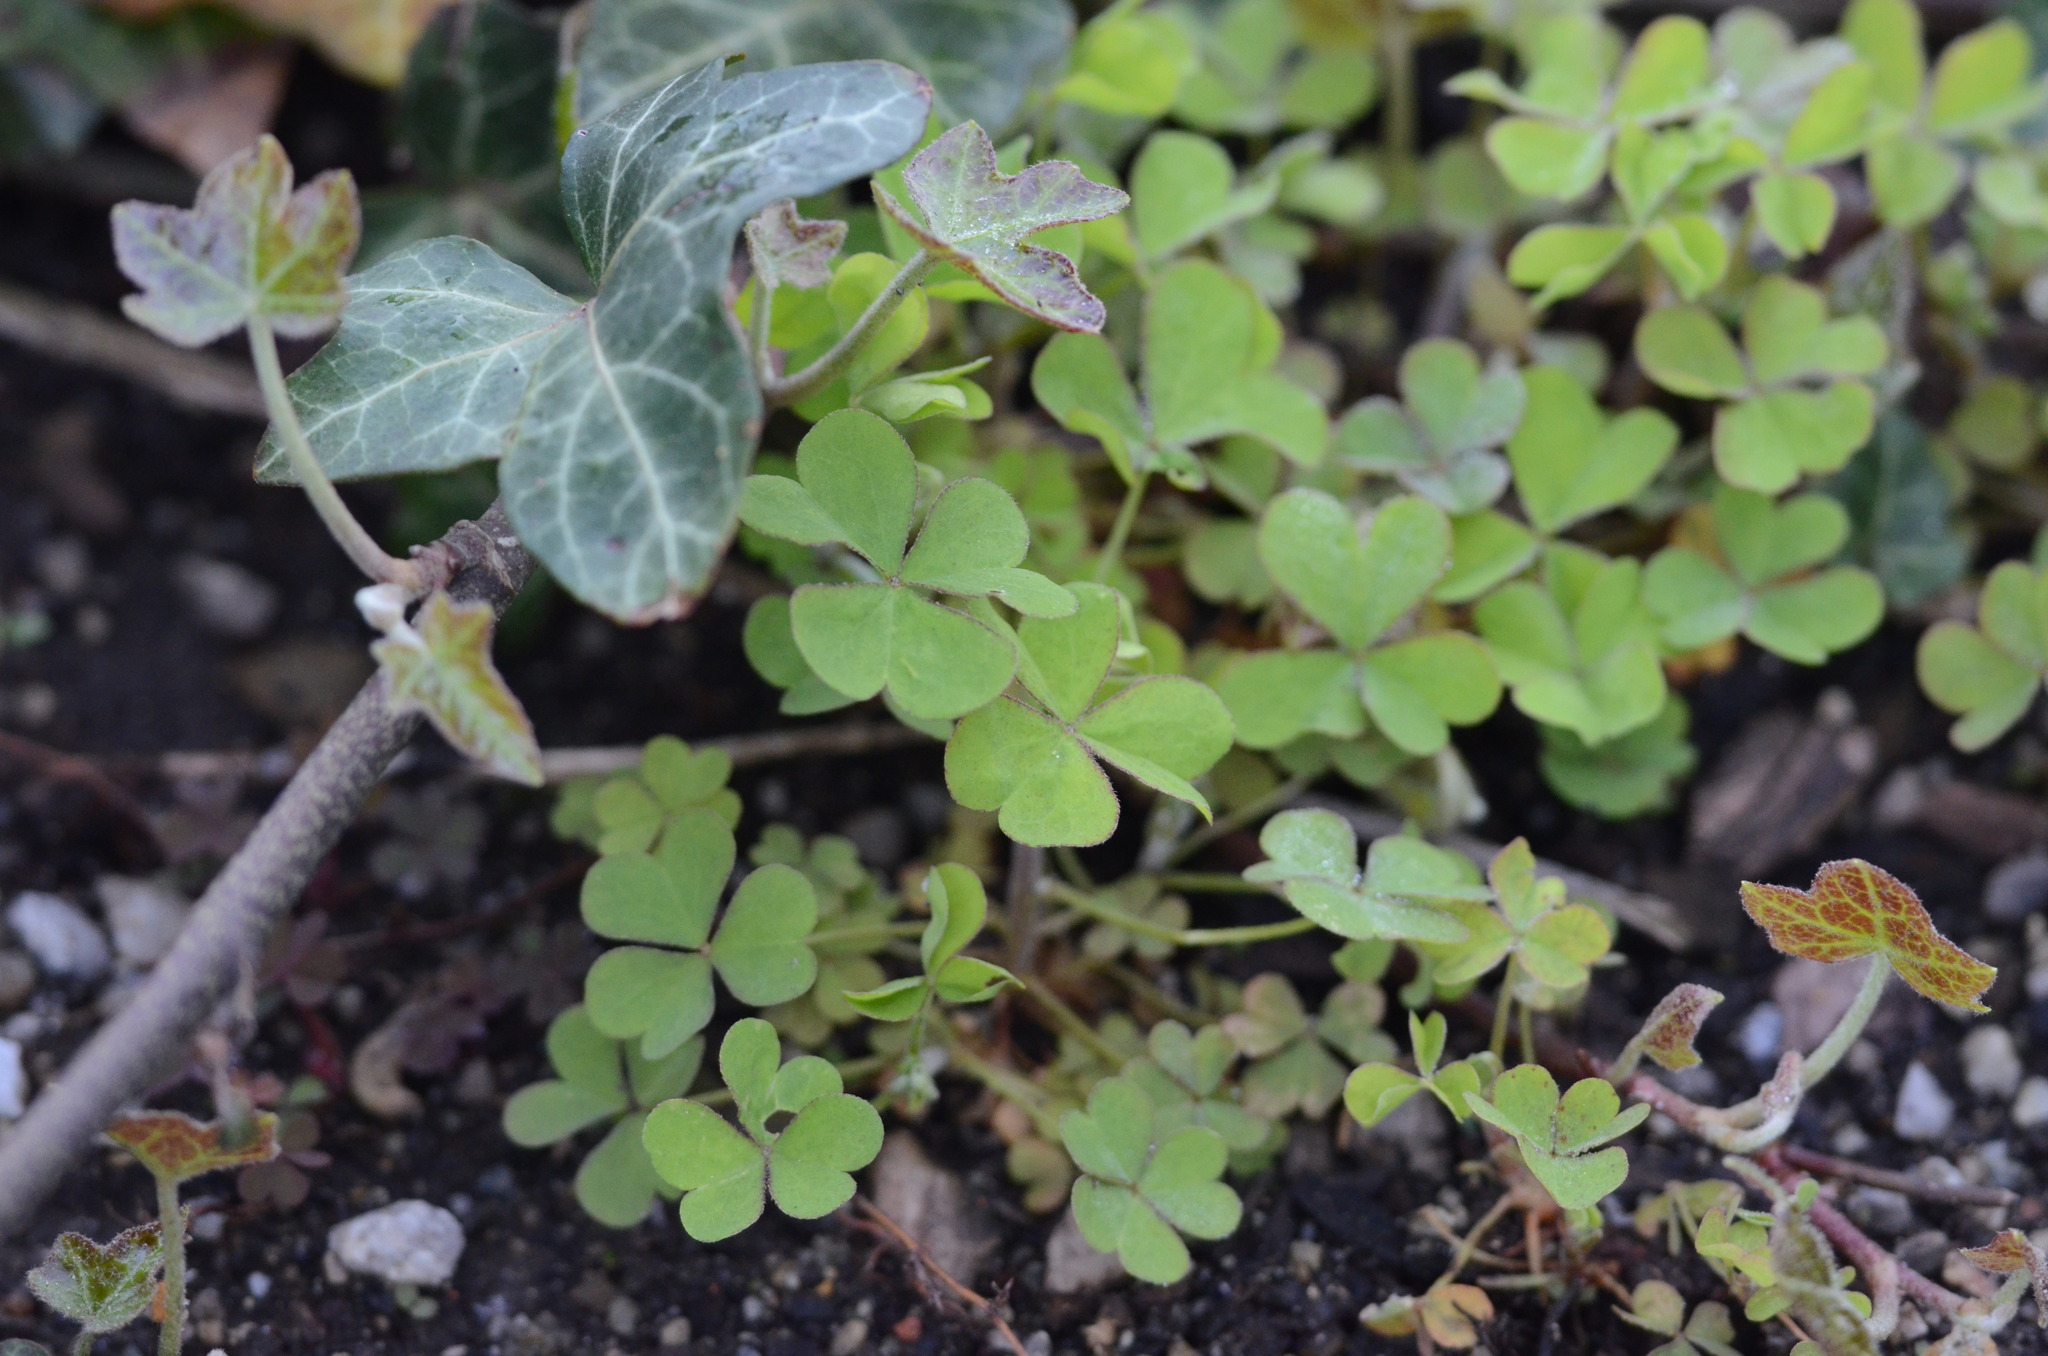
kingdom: Plantae
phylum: Tracheophyta
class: Magnoliopsida
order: Oxalidales
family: Oxalidaceae
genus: Oxalis
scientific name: Oxalis acetosella
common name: Wood-sorrel
